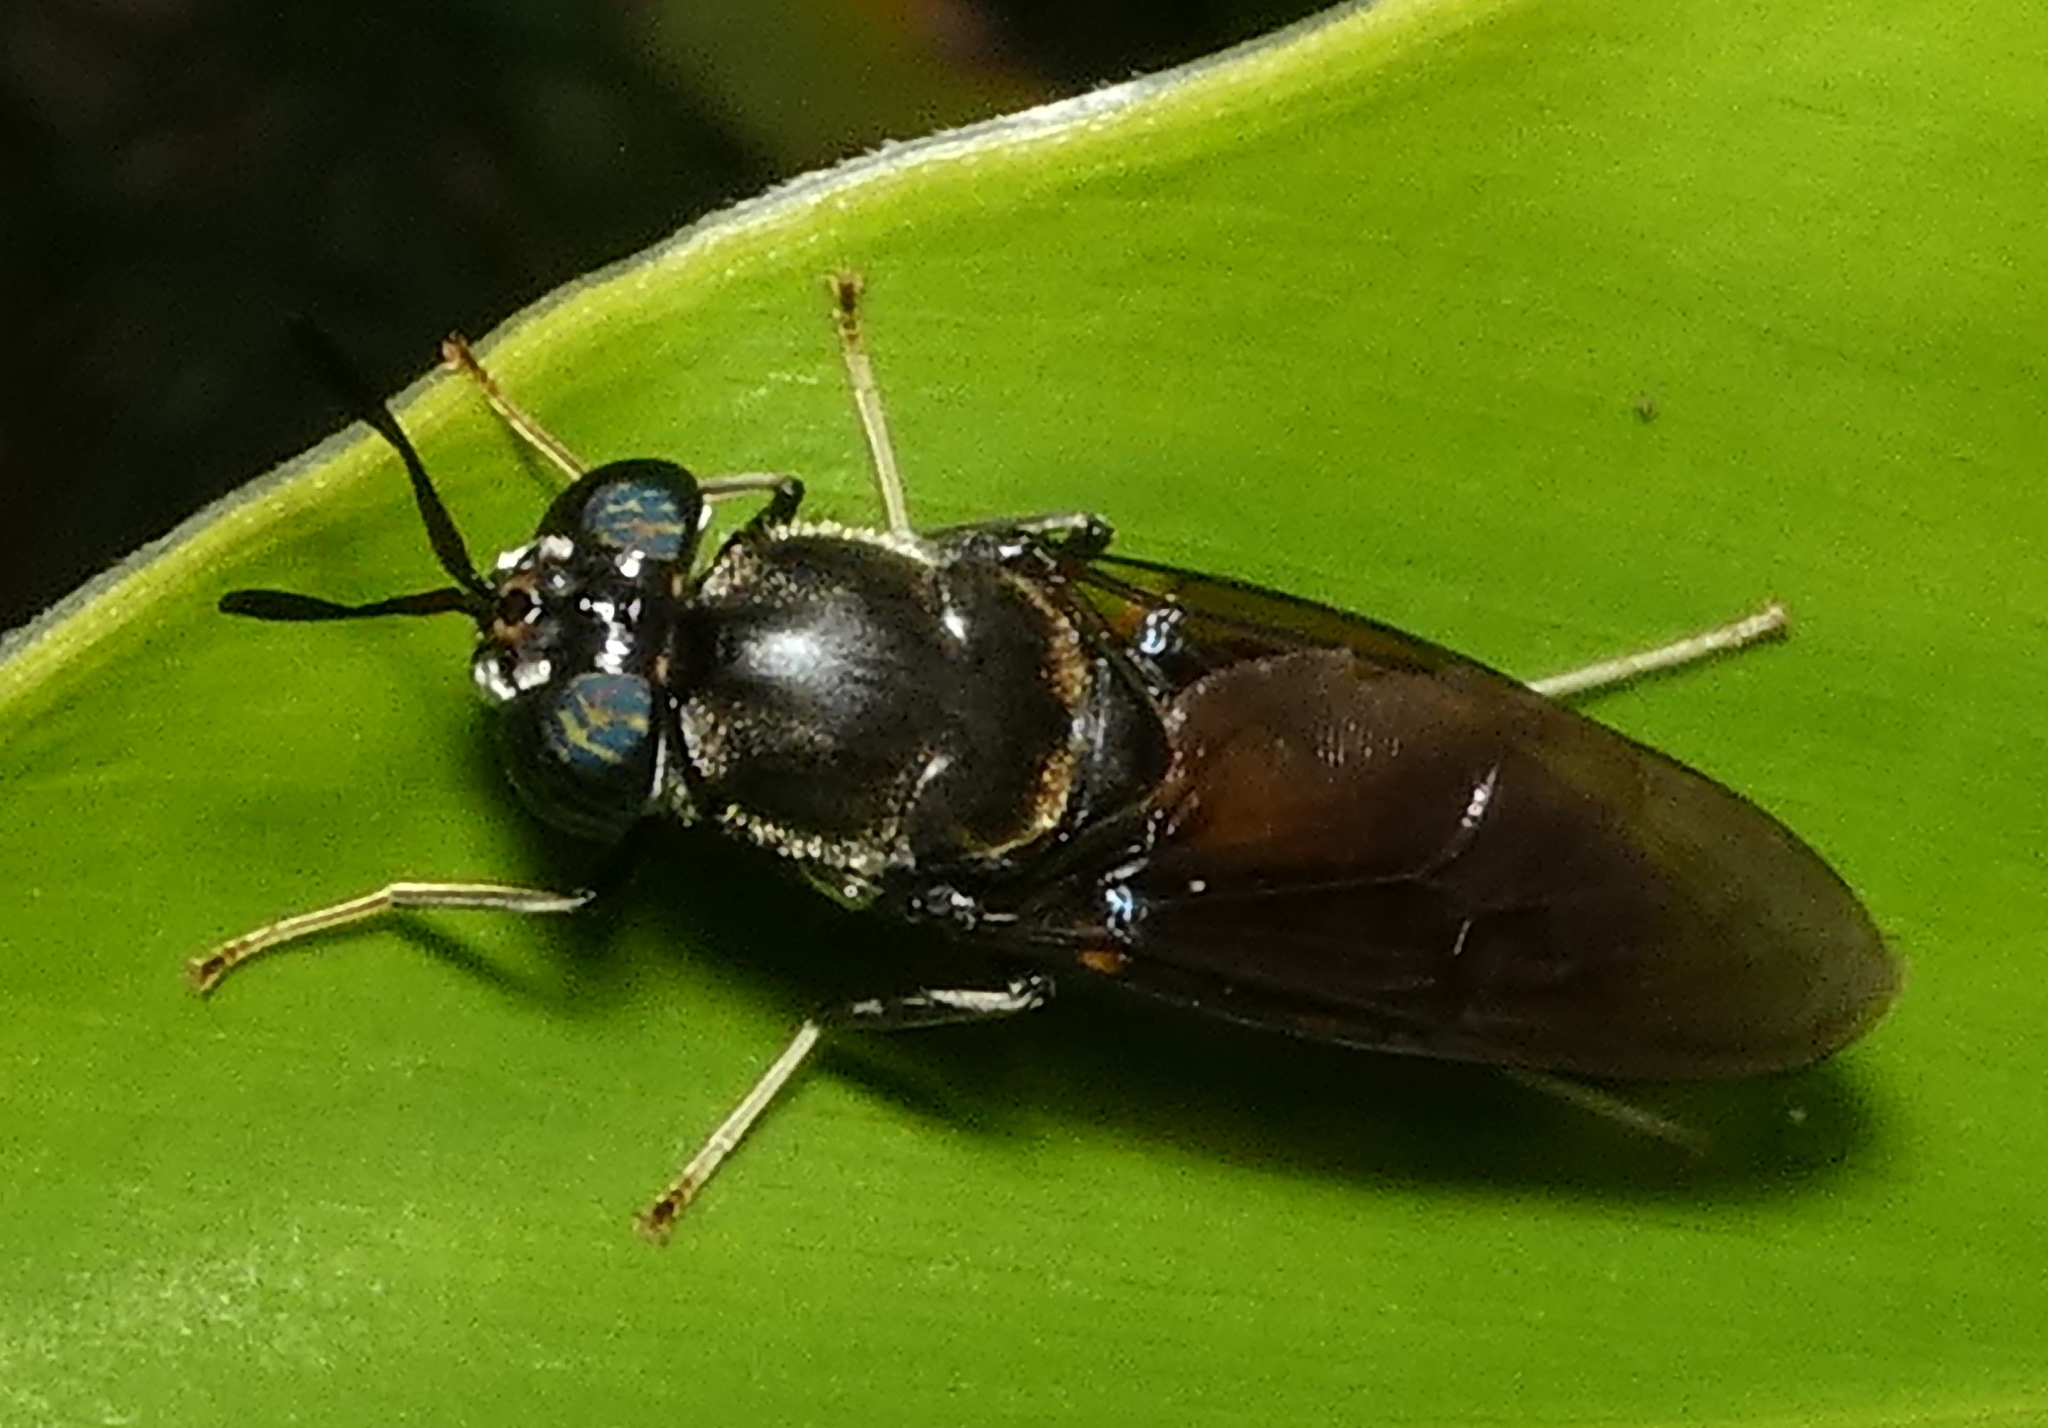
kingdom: Animalia
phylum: Arthropoda
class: Insecta
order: Diptera
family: Stratiomyidae
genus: Hermetia
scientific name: Hermetia illucens
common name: Black soldier fly
